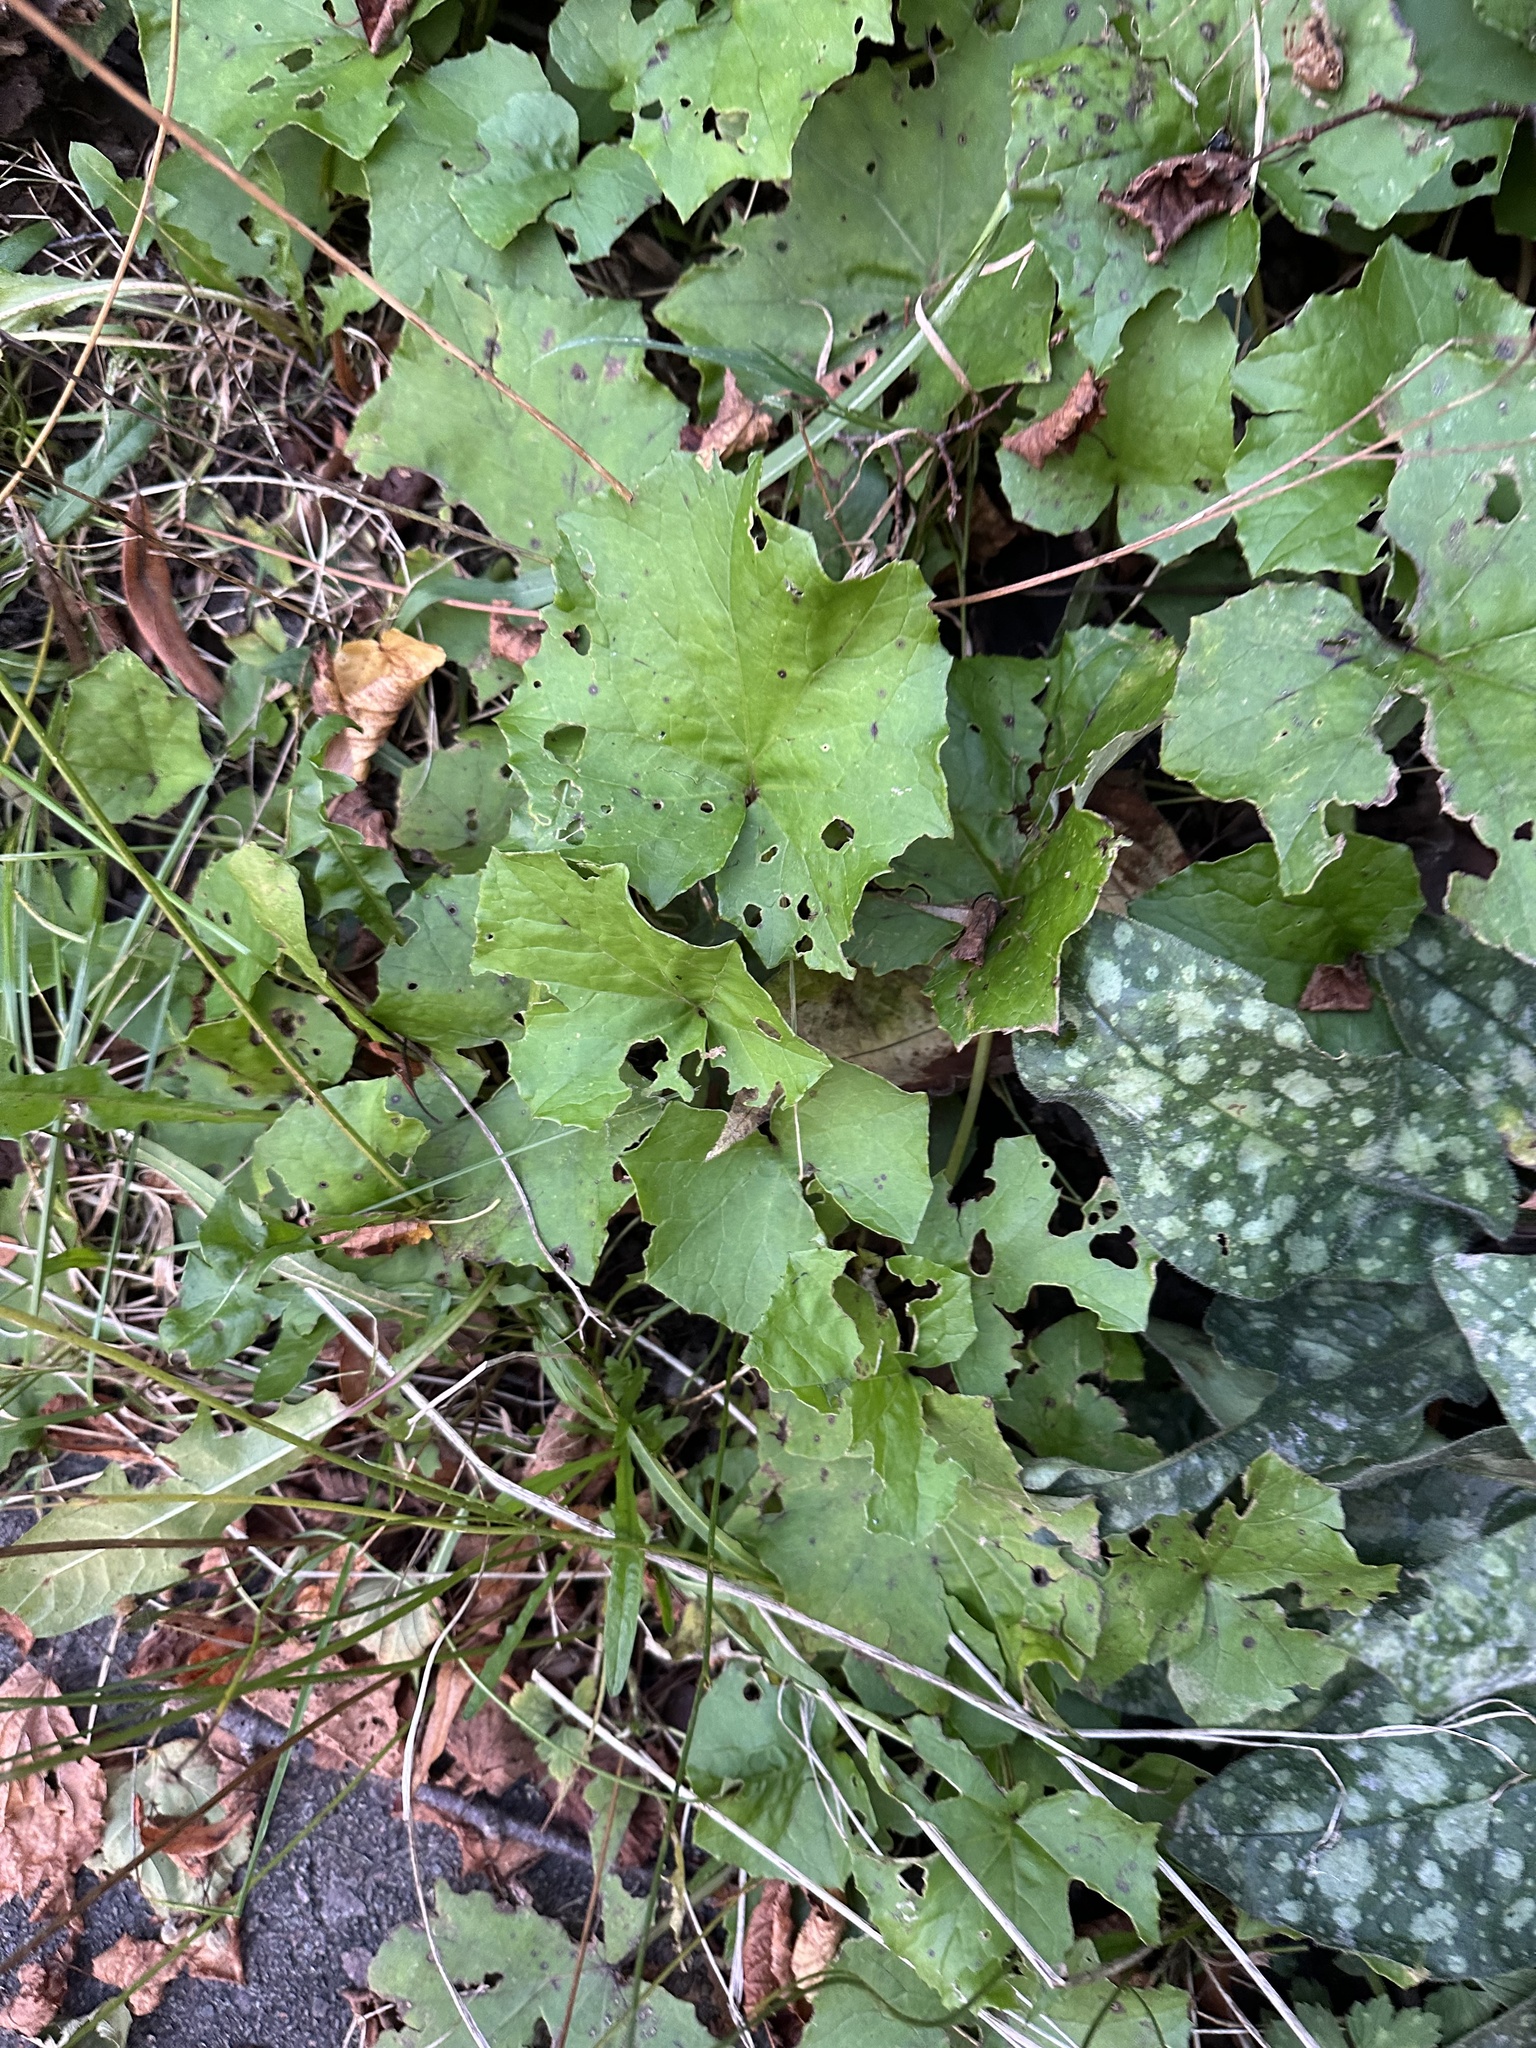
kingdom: Plantae
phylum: Tracheophyta
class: Magnoliopsida
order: Asterales
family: Asteraceae
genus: Tussilago
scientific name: Tussilago farfara
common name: Coltsfoot
